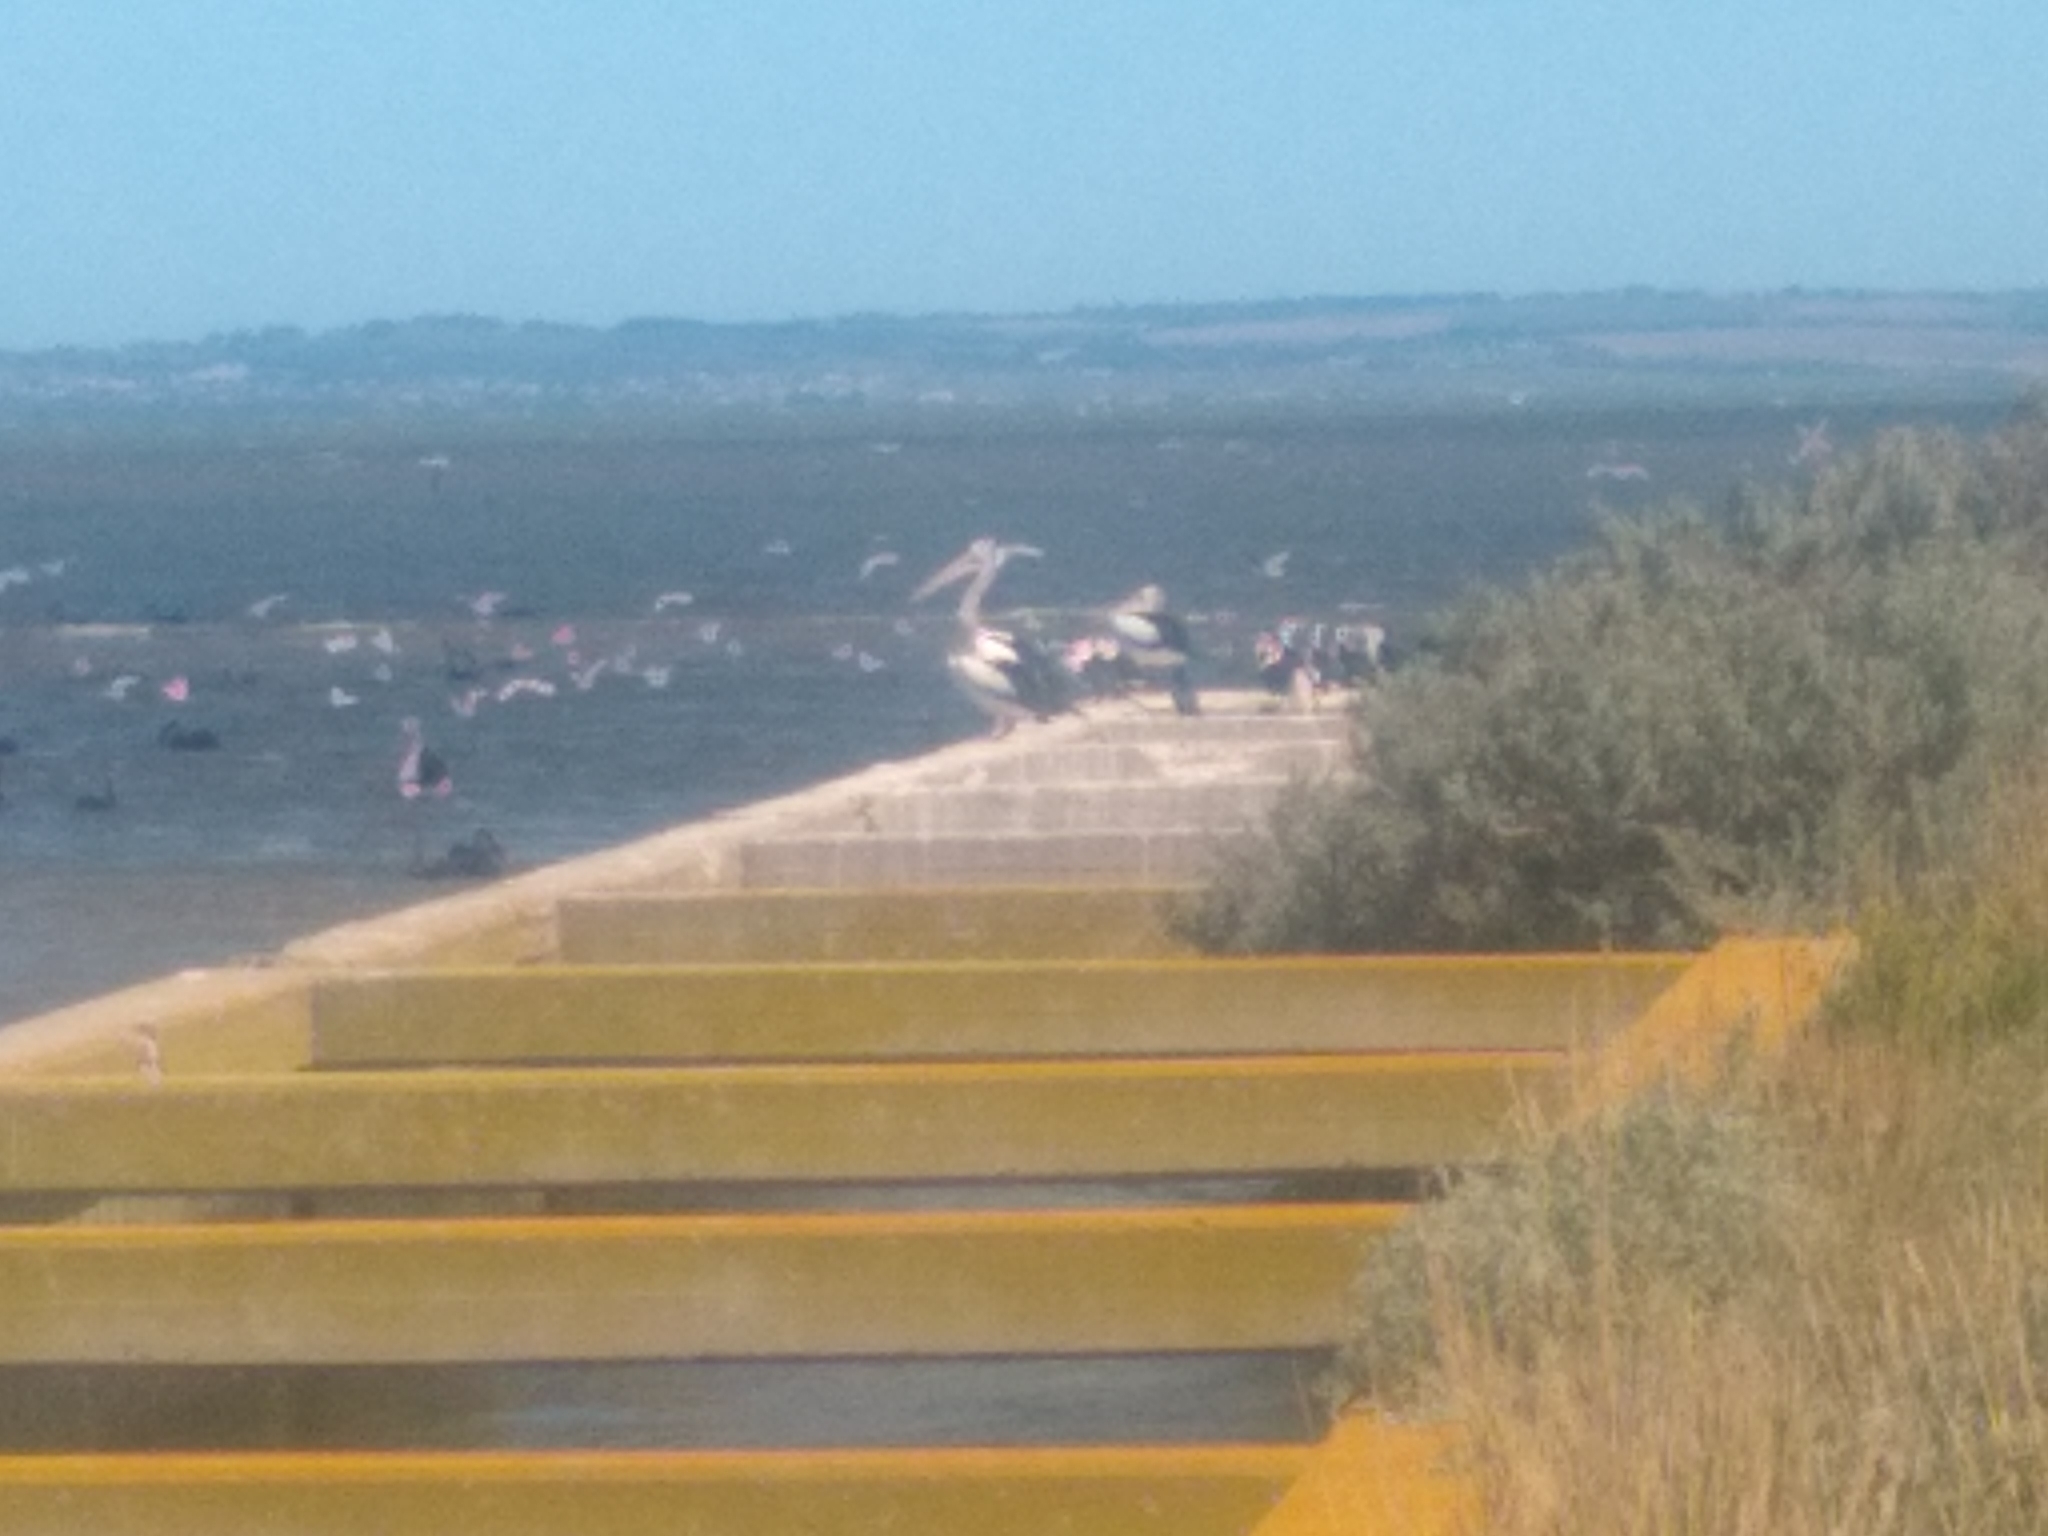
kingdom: Animalia
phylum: Chordata
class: Aves
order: Pelecaniformes
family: Pelecanidae
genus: Pelecanus
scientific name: Pelecanus conspicillatus
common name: Australian pelican
